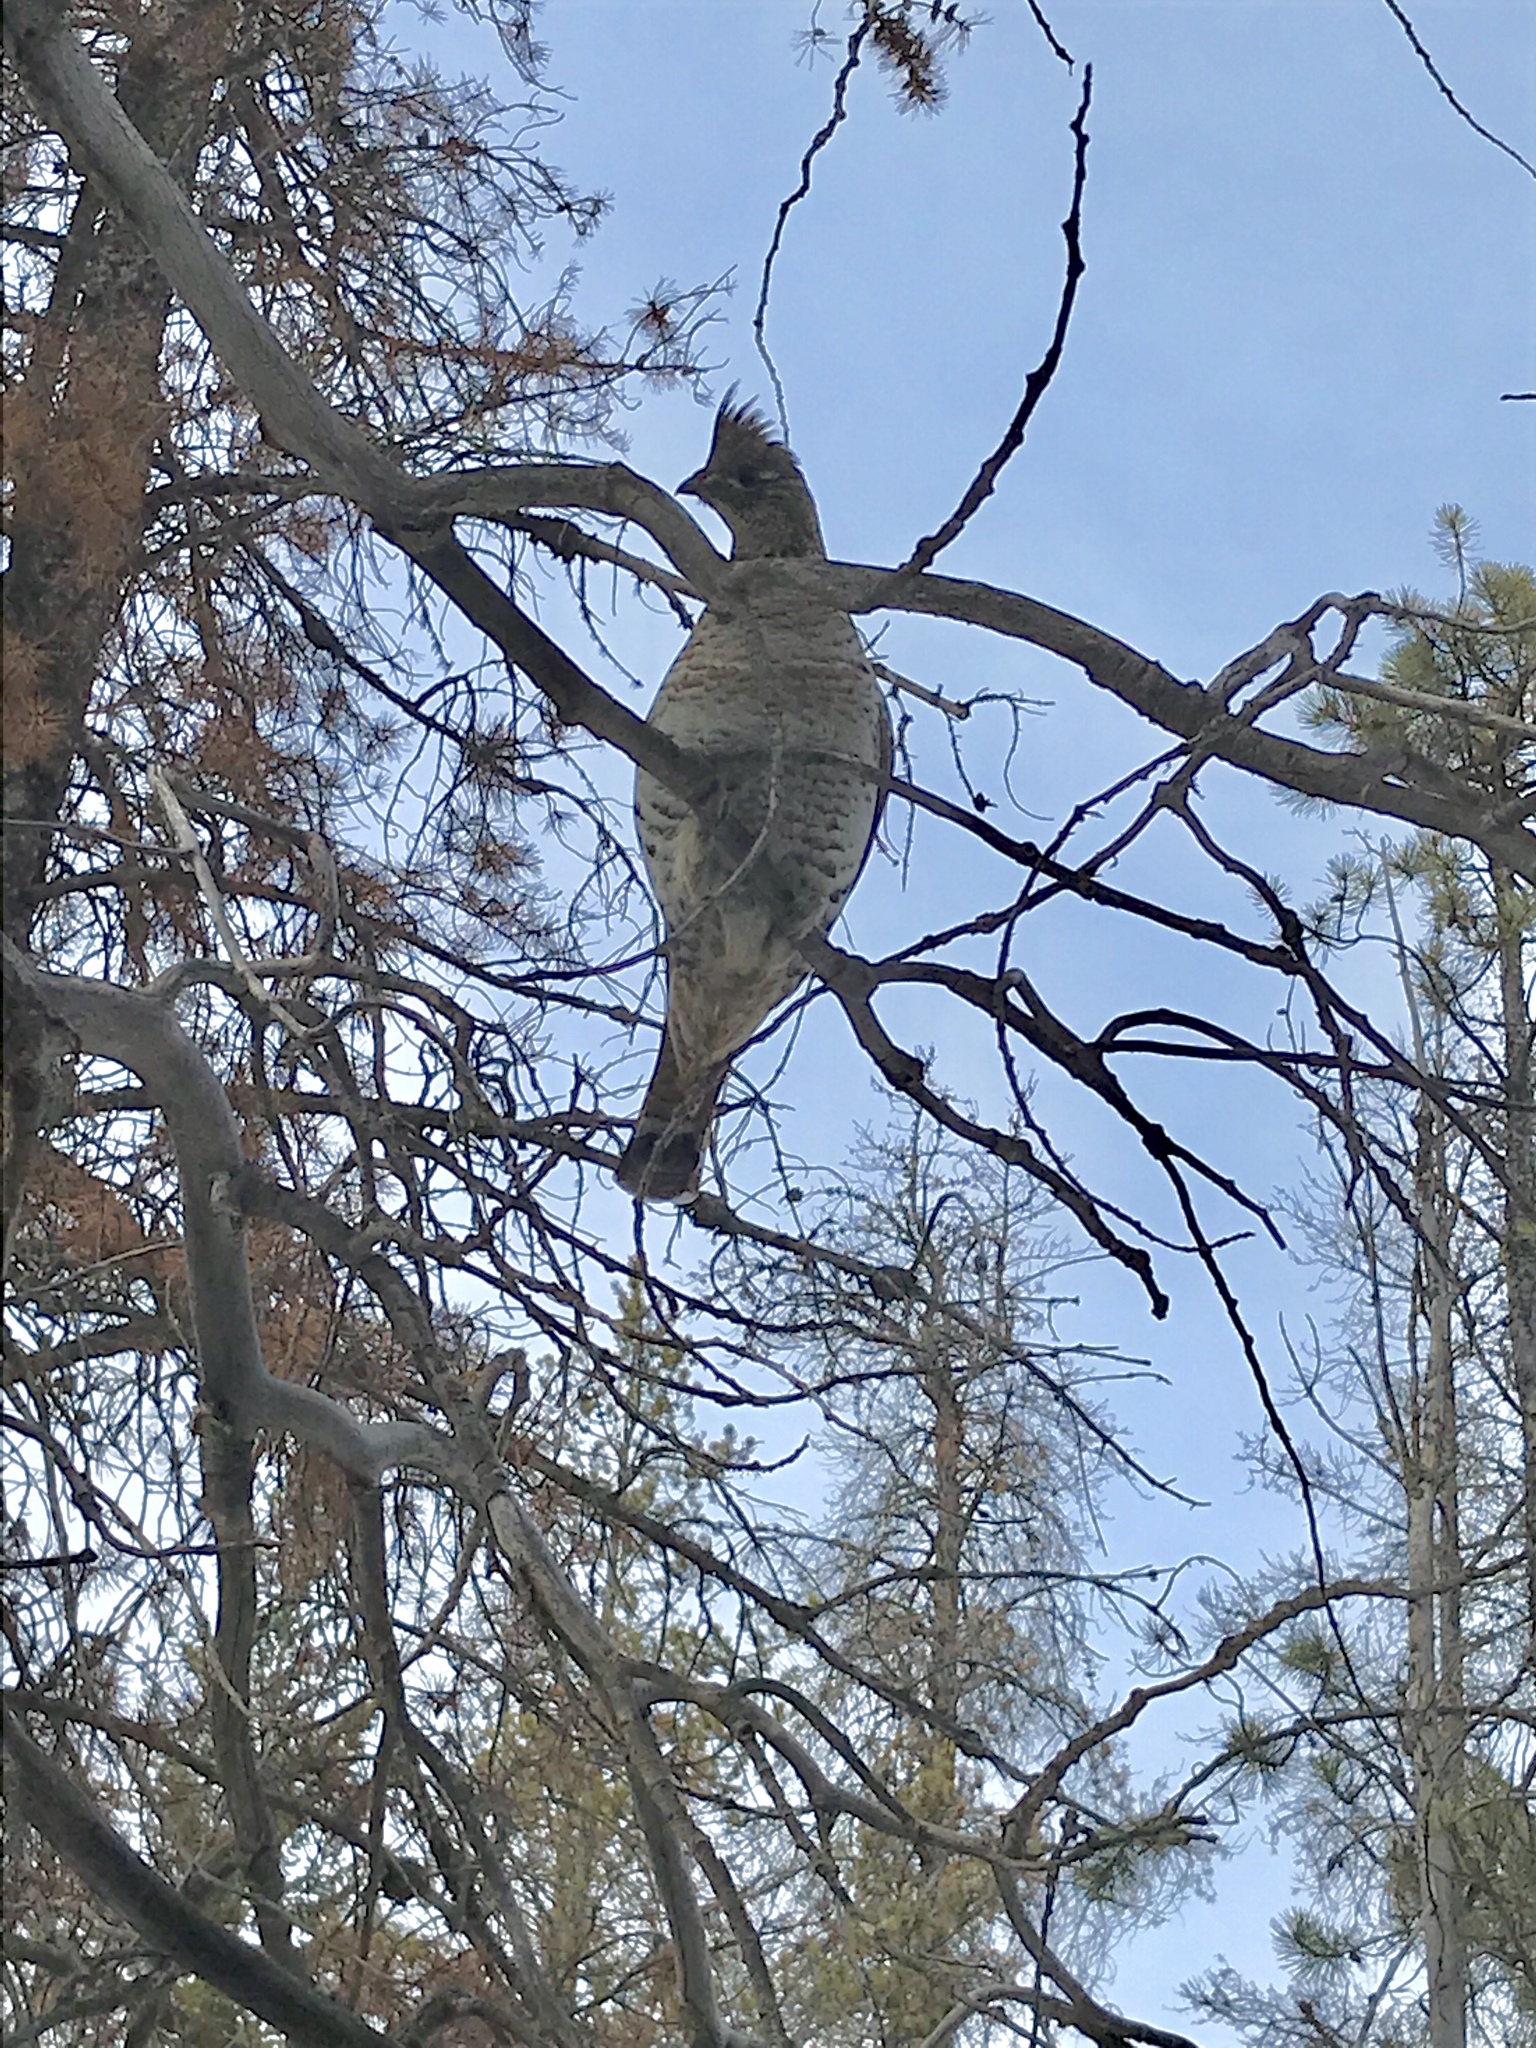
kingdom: Animalia
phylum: Chordata
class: Aves
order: Galliformes
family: Phasianidae
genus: Bonasa
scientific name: Bonasa umbellus
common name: Ruffed grouse
